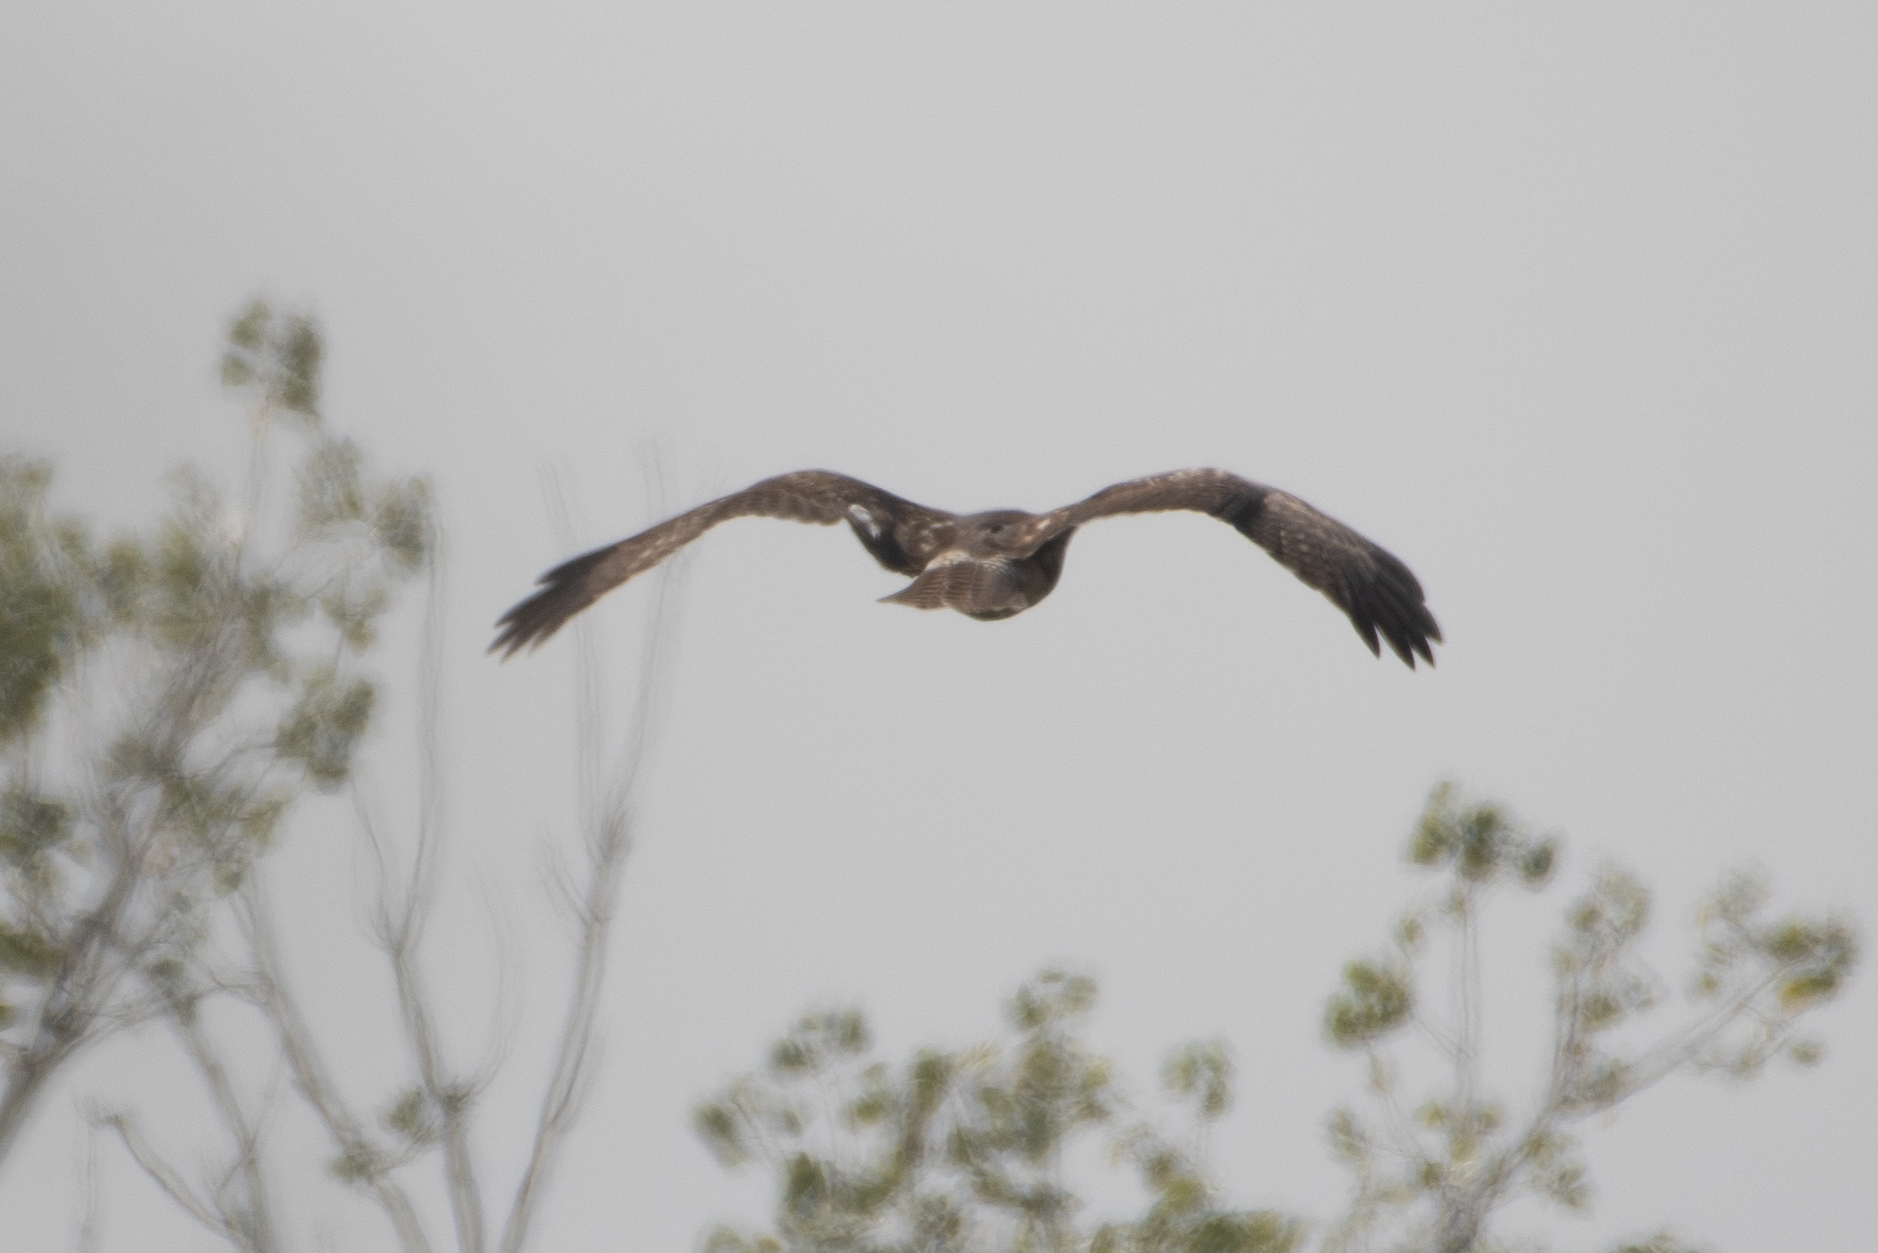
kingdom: Animalia
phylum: Chordata
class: Aves
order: Accipitriformes
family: Accipitridae
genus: Circus
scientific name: Circus cyaneus
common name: Hen harrier
